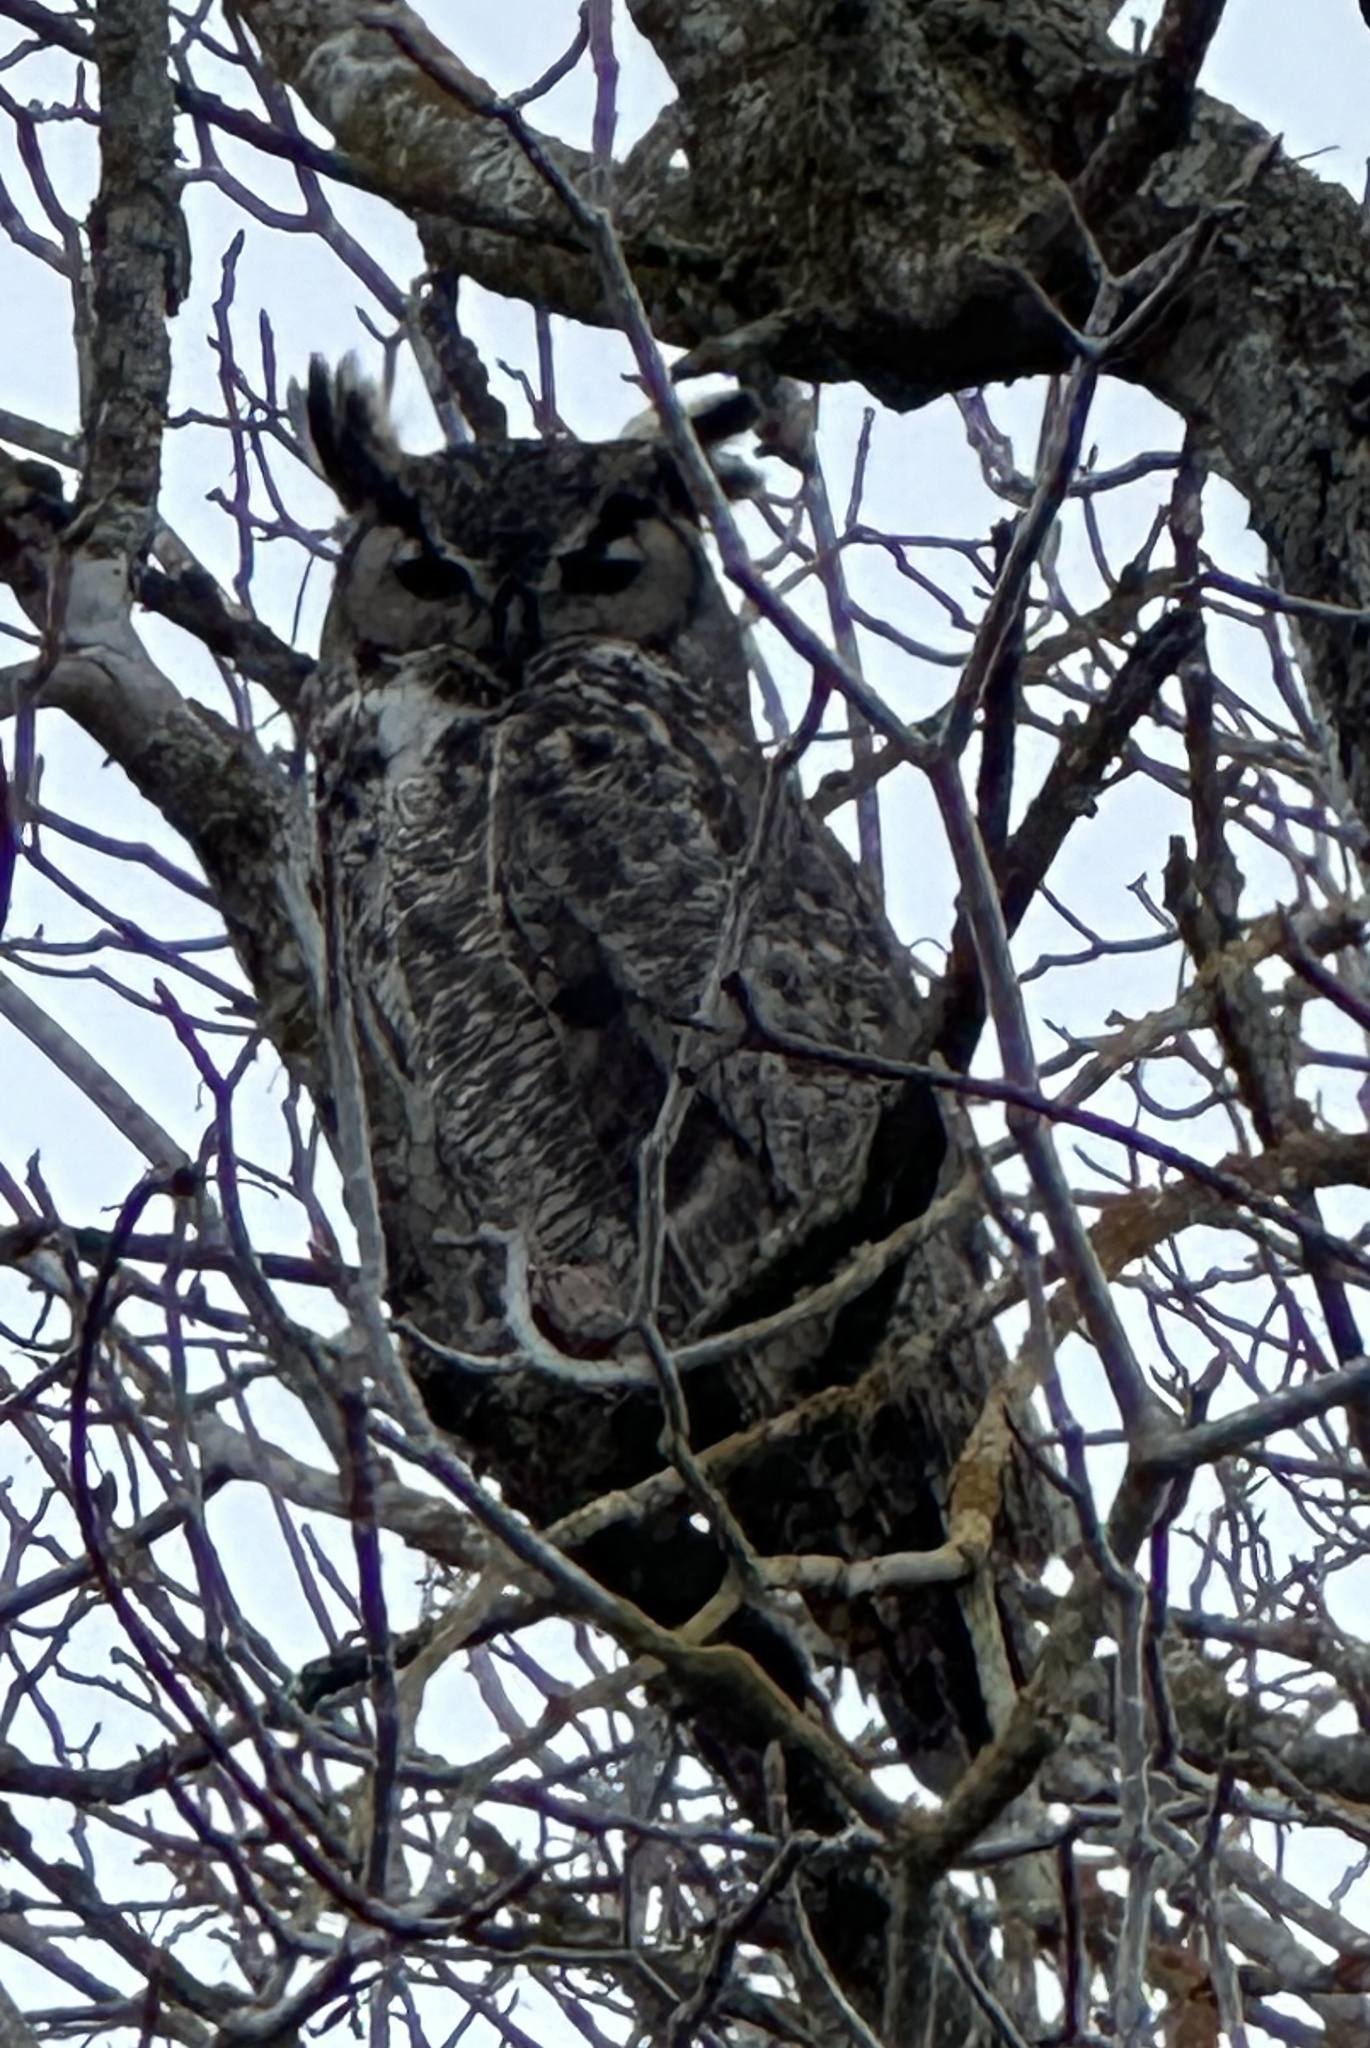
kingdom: Animalia
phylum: Chordata
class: Aves
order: Strigiformes
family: Strigidae
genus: Bubo
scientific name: Bubo virginianus
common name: Great horned owl
